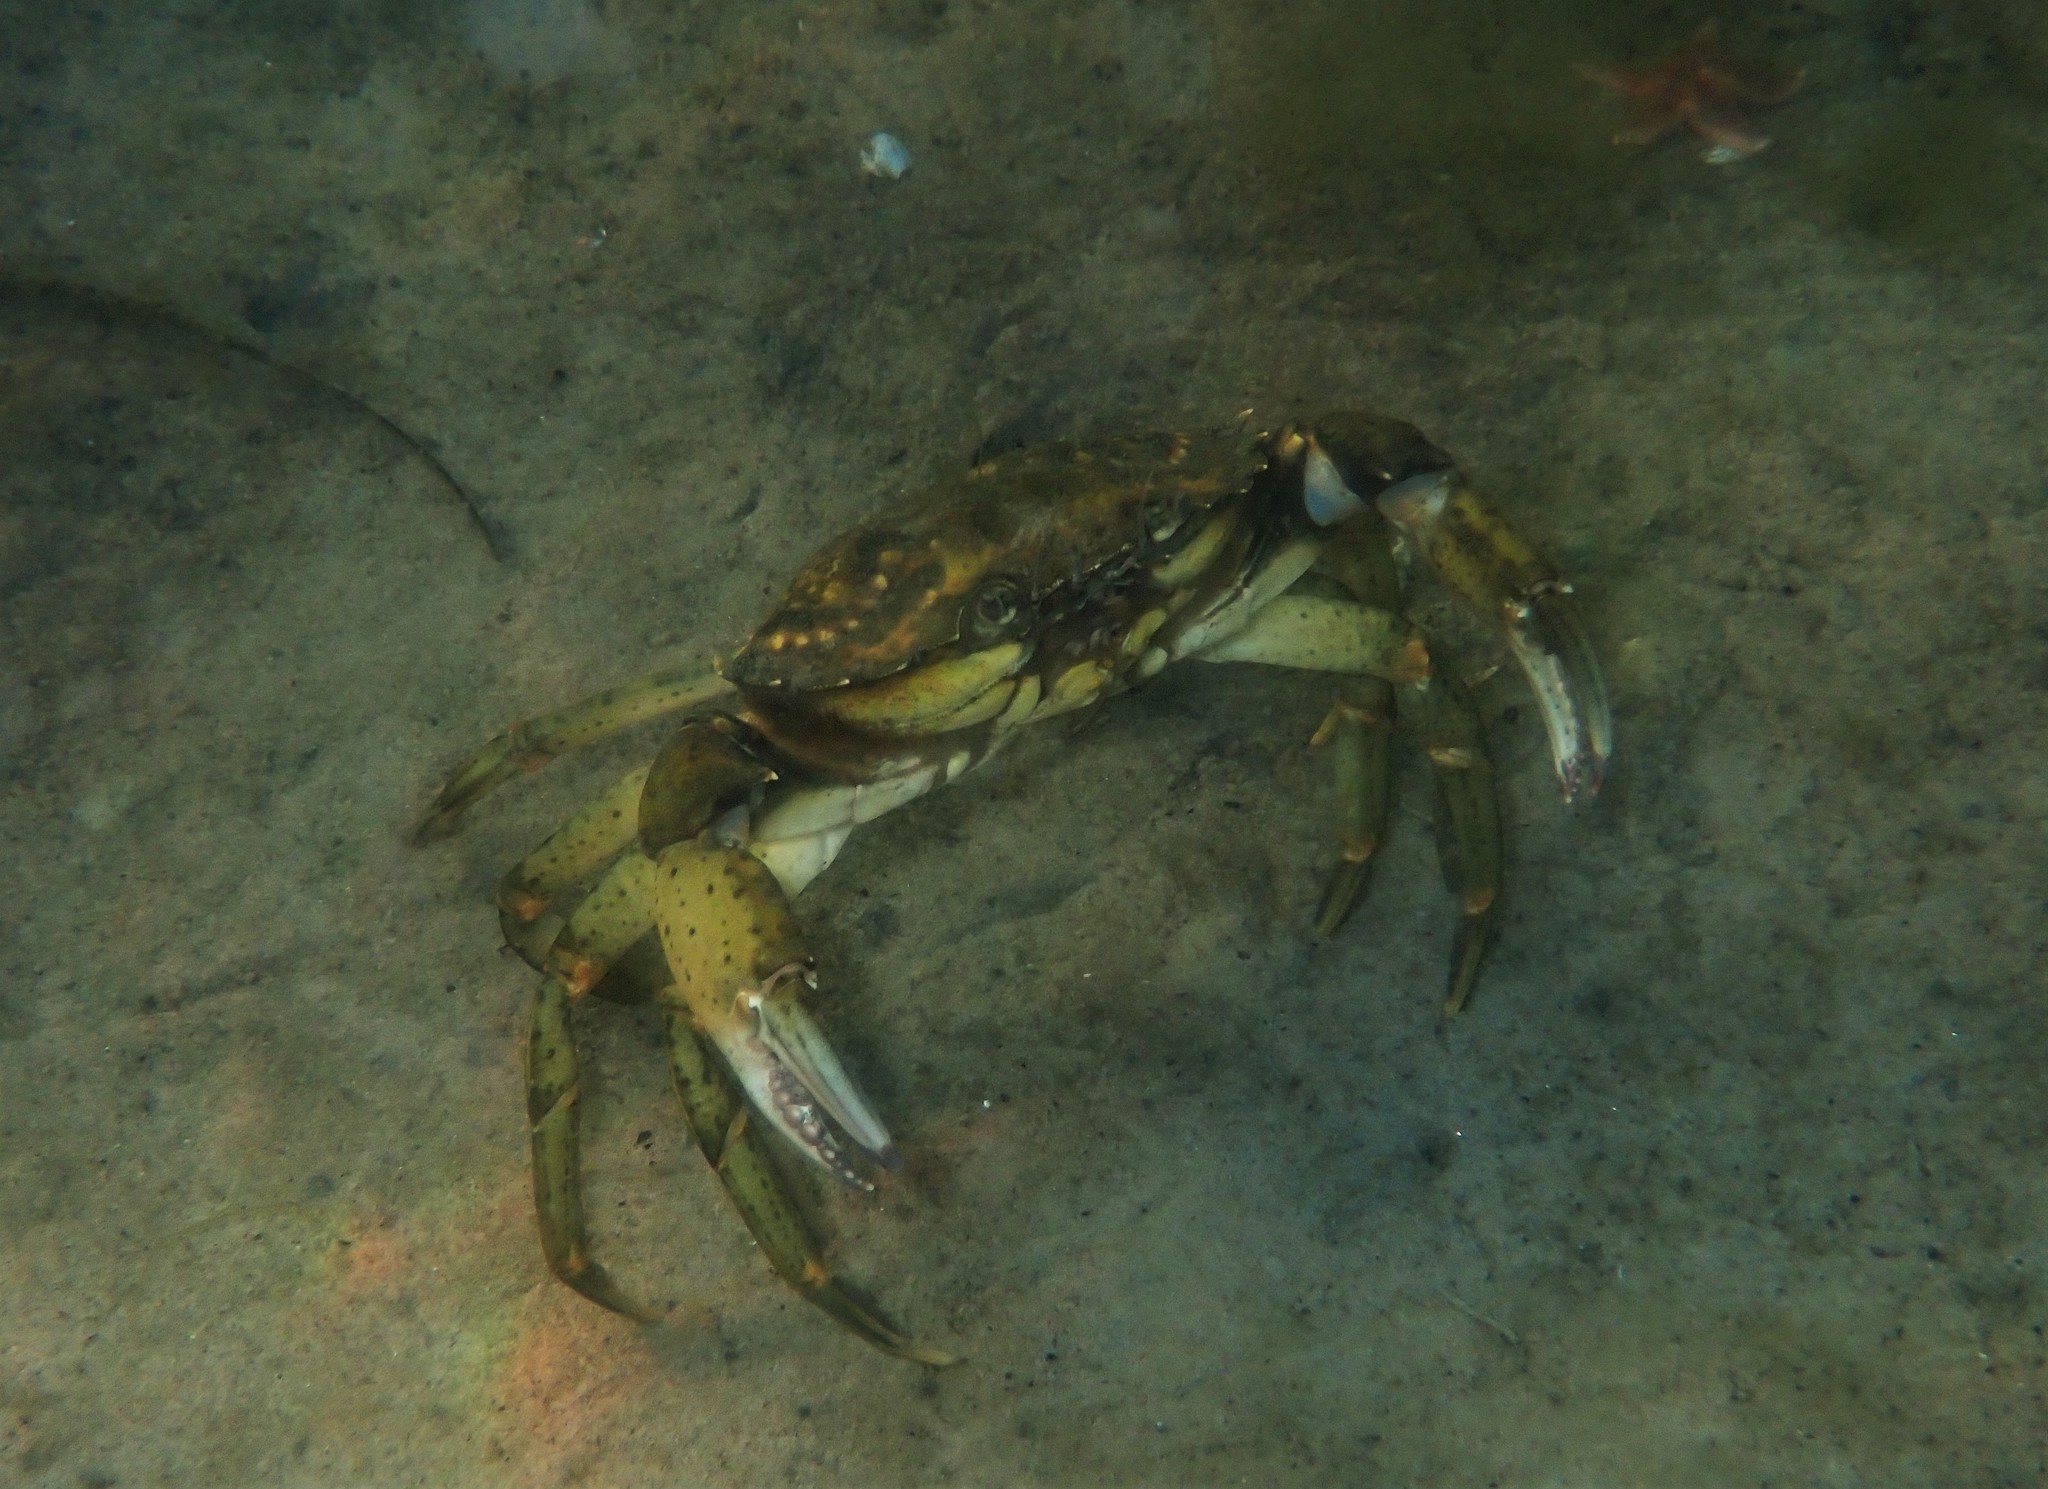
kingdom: Animalia
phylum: Arthropoda
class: Malacostraca
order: Decapoda
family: Carcinidae
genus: Carcinus
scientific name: Carcinus maenas
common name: European green crab
